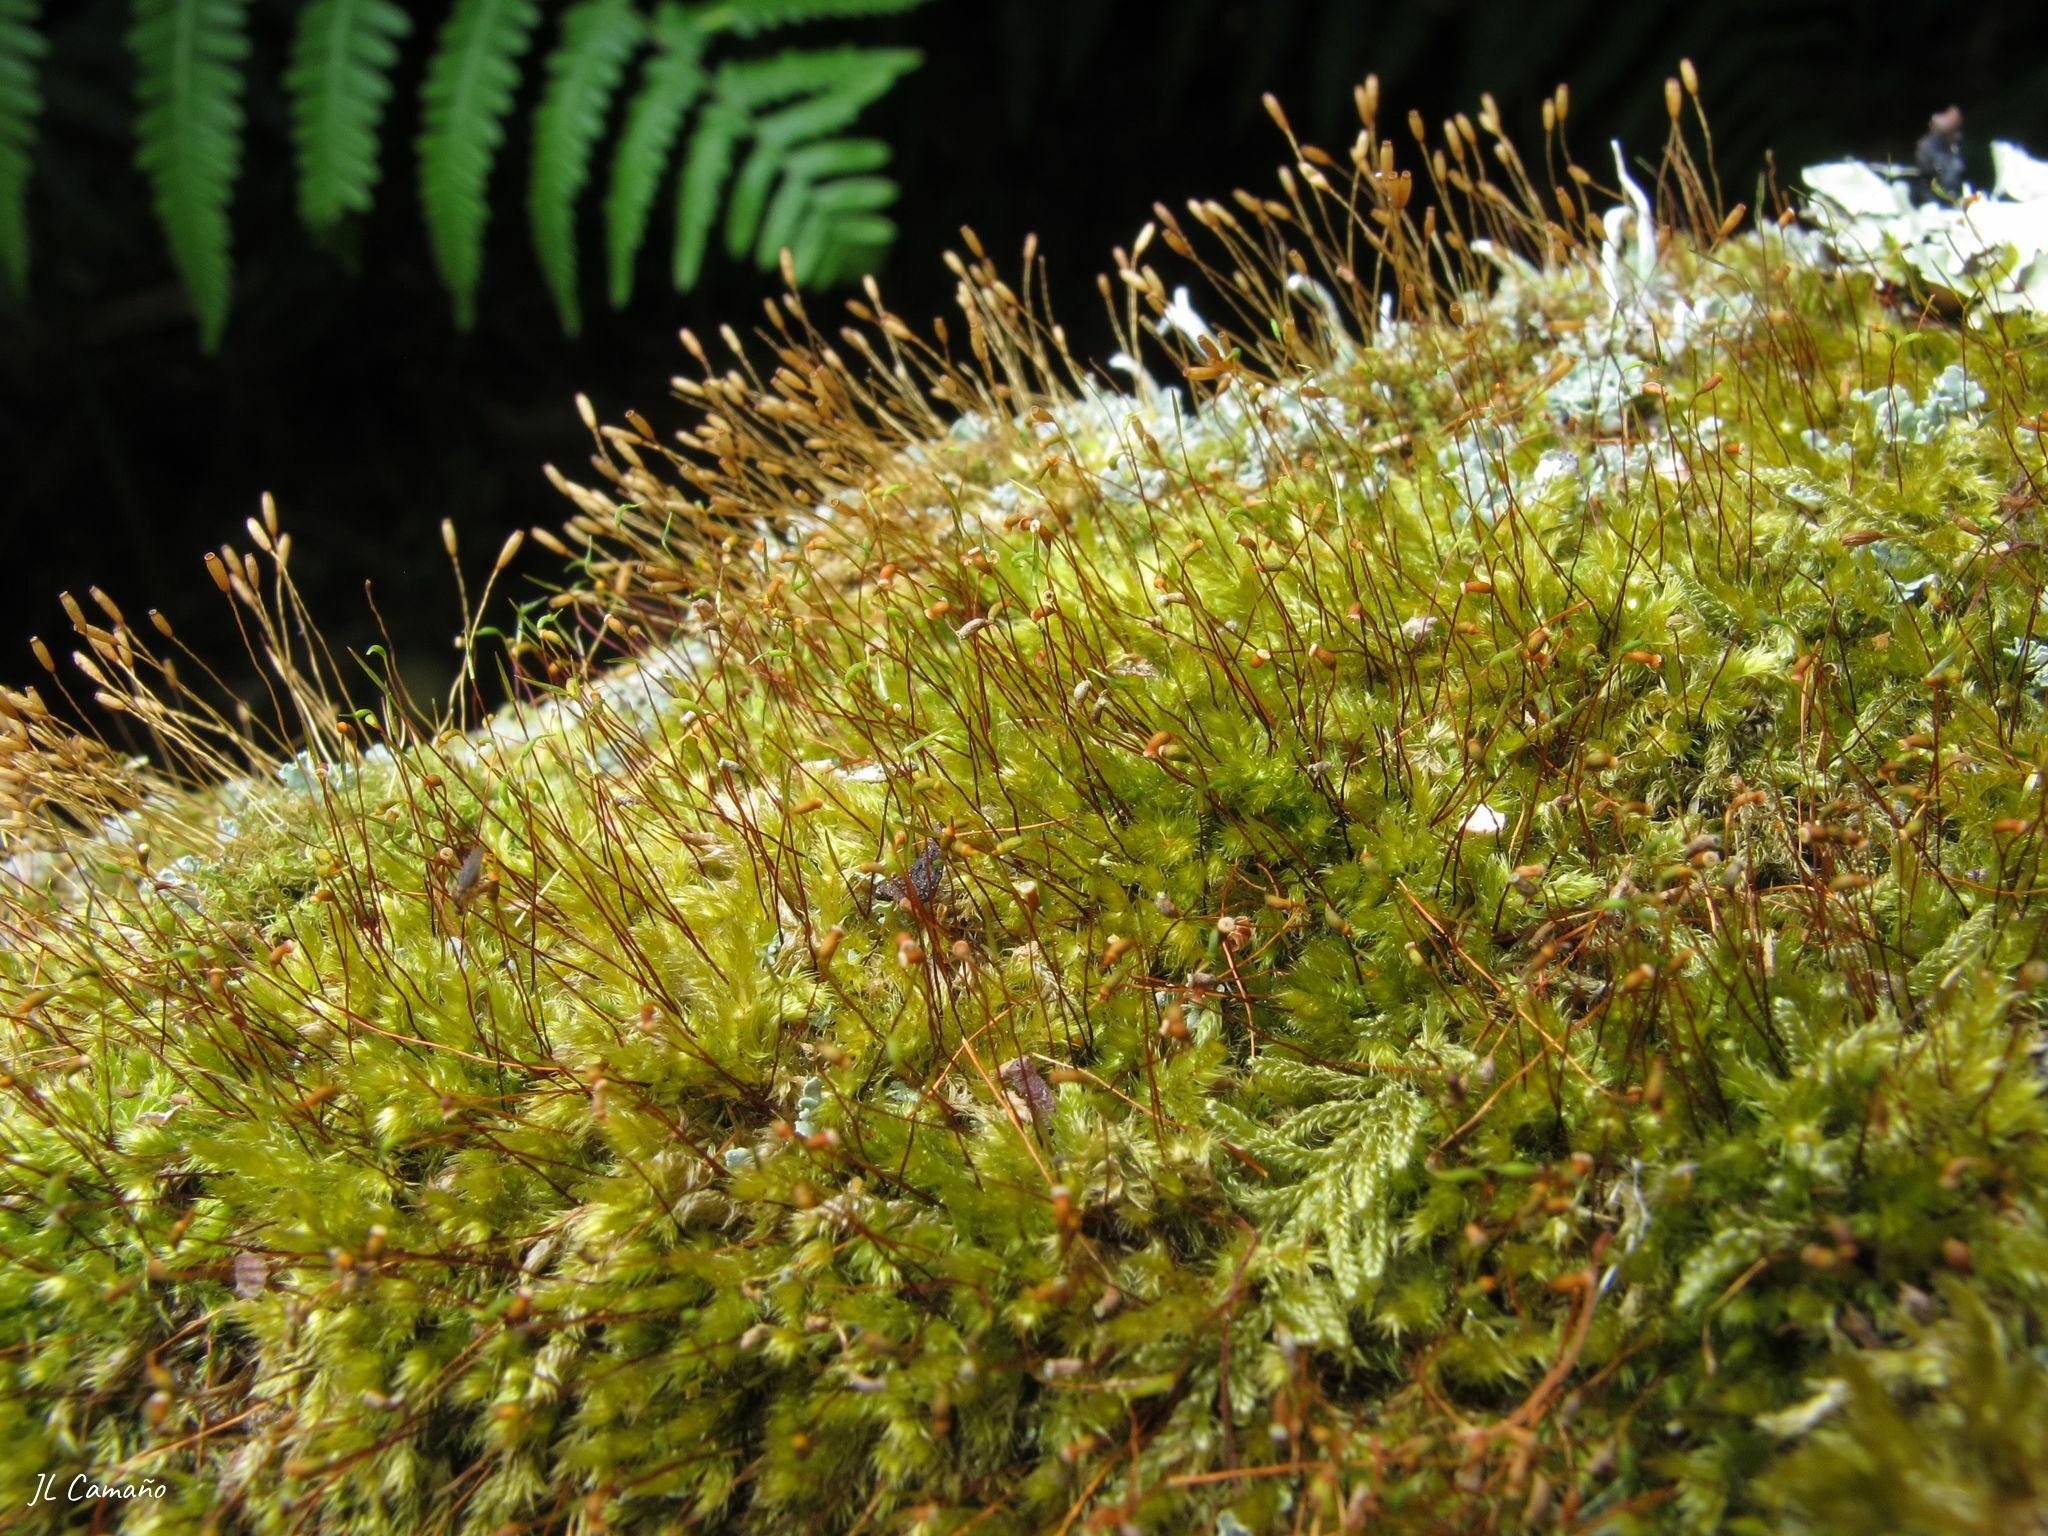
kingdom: Plantae
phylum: Bryophyta
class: Bryopsida
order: Hypnales
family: Sematophyllaceae
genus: Sematophyllum
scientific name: Sematophyllum substrumulosum
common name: Bark signal-moss
